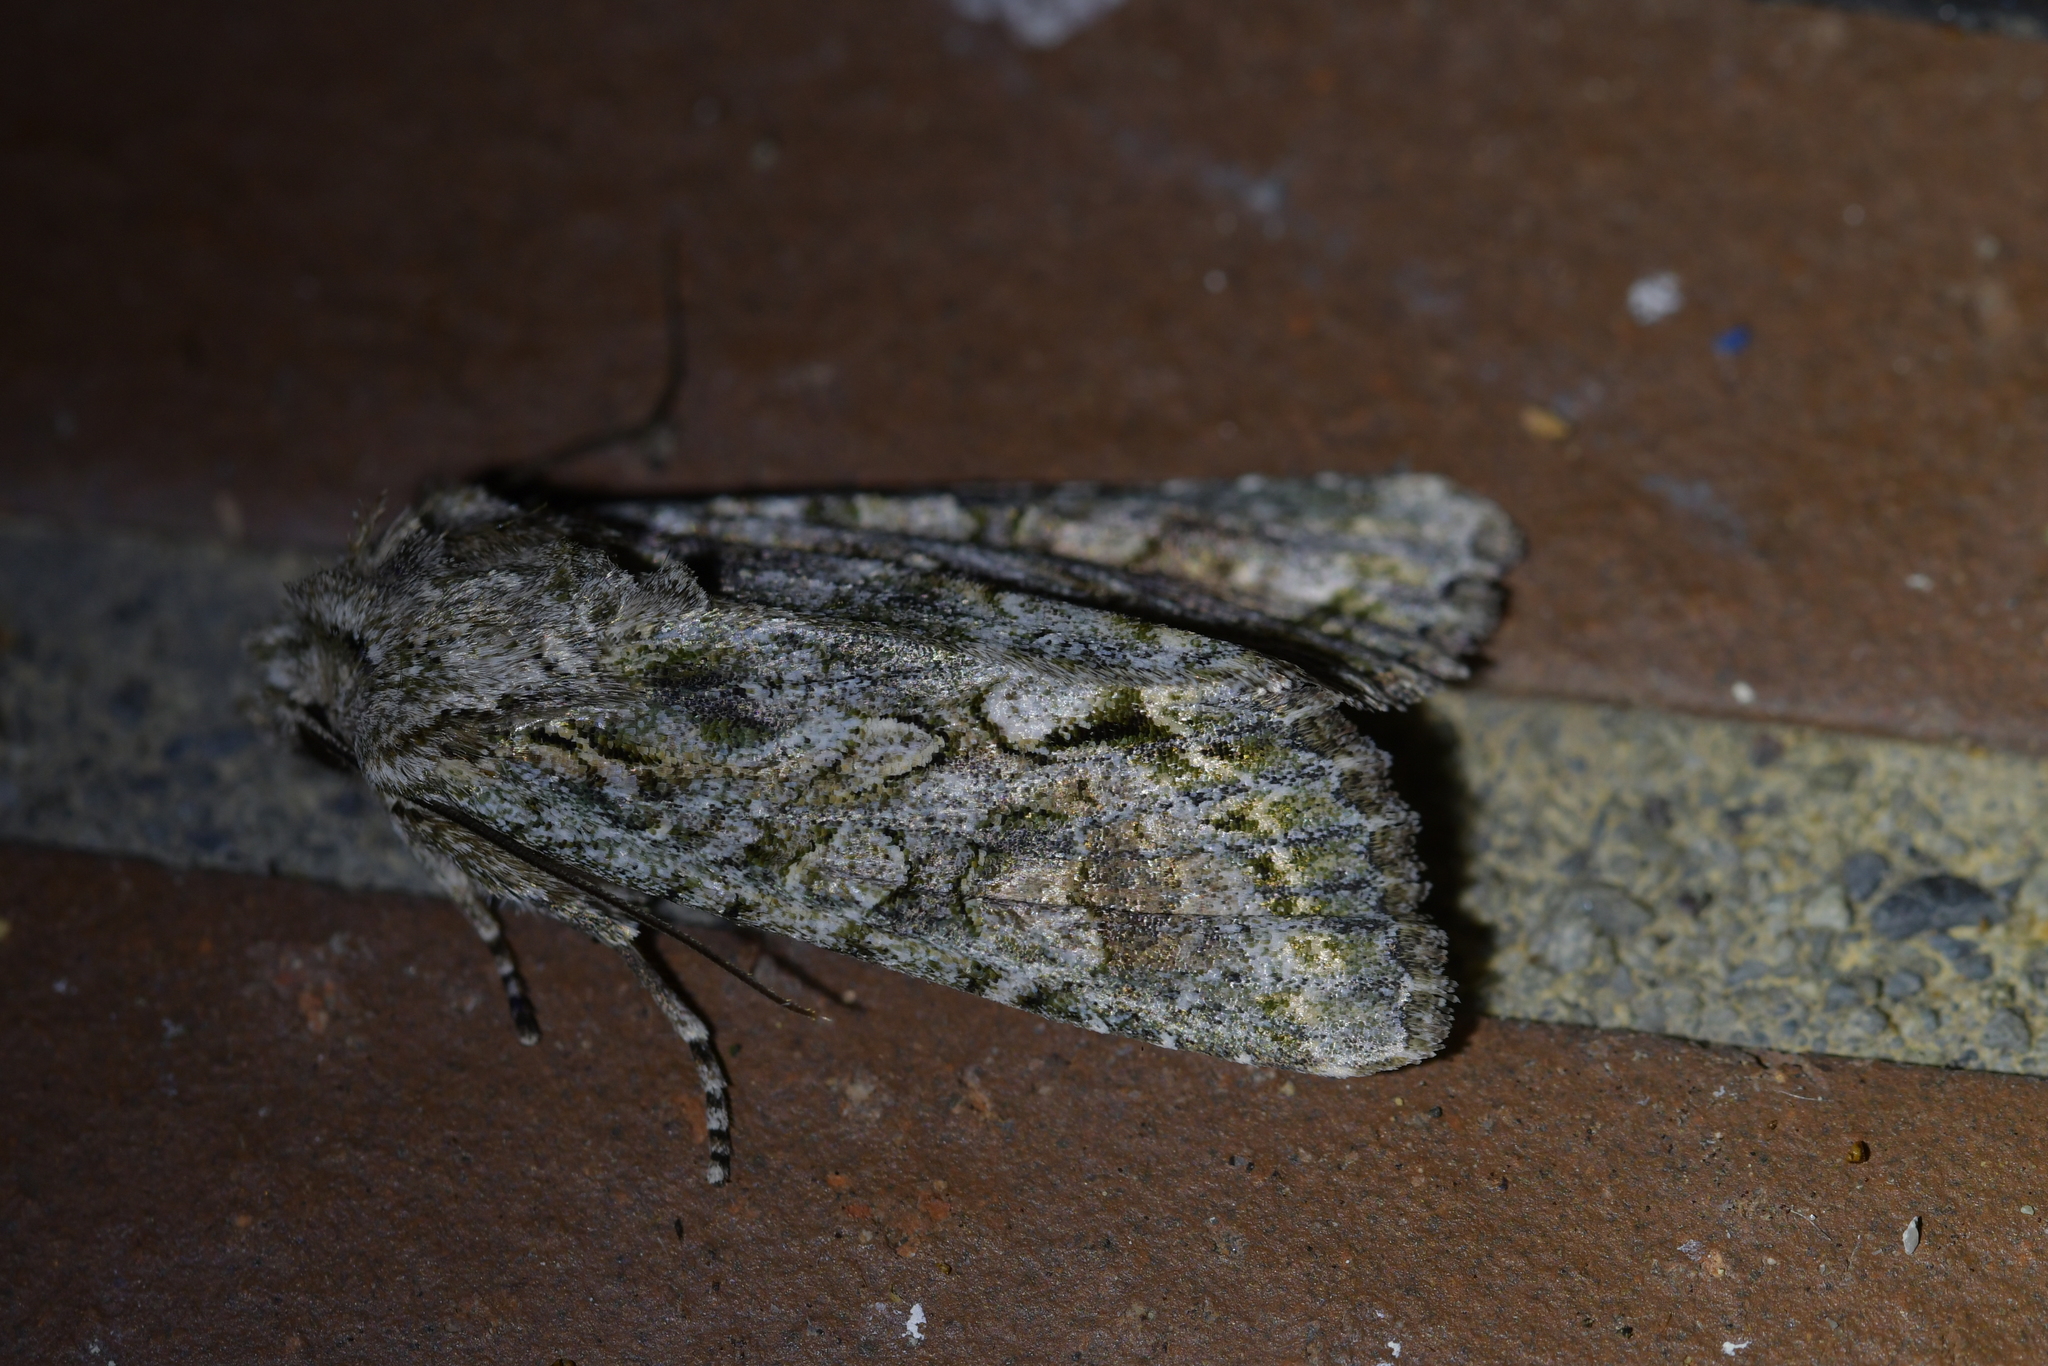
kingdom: Animalia
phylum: Arthropoda
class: Insecta
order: Lepidoptera
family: Noctuidae
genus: Ichneutica
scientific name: Ichneutica mutans
